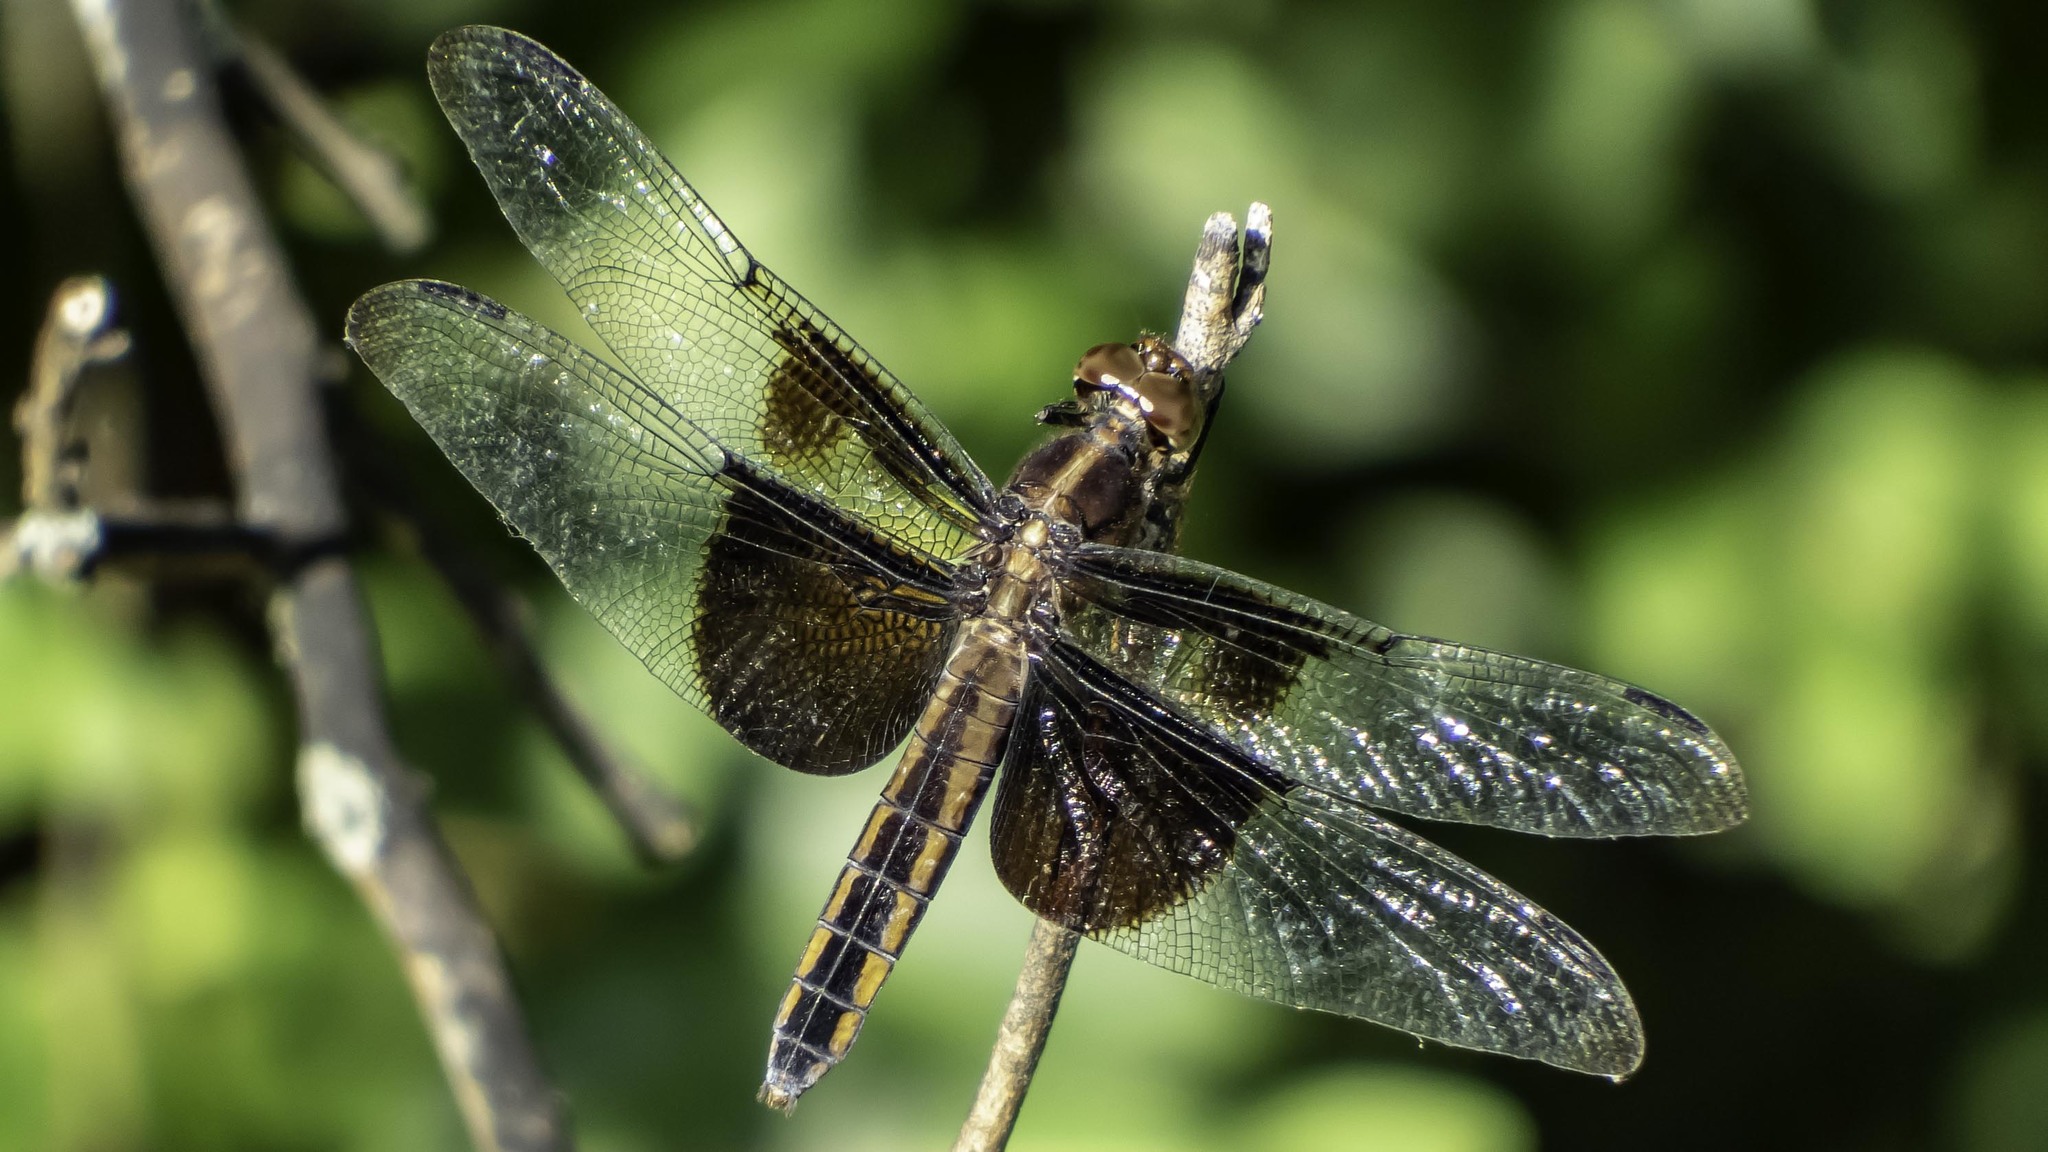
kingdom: Animalia
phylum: Arthropoda
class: Insecta
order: Odonata
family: Libellulidae
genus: Libellula
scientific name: Libellula luctuosa
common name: Widow skimmer
